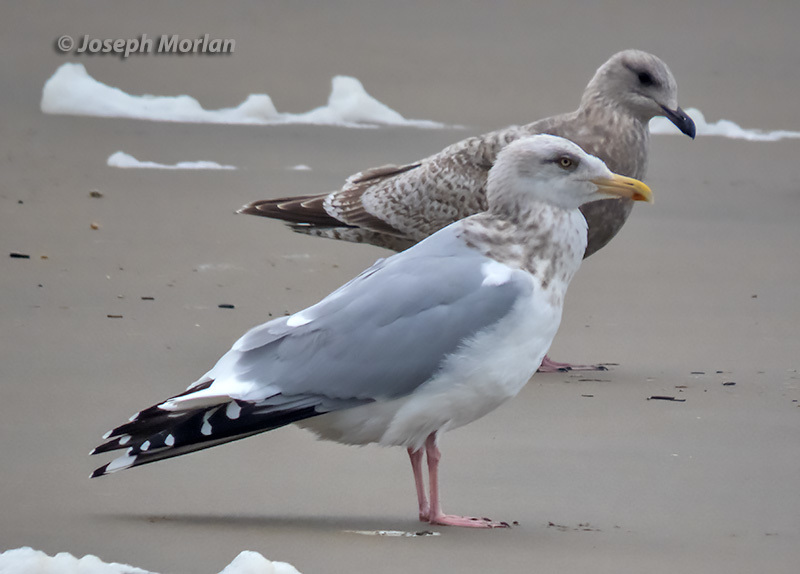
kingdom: Animalia
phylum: Chordata
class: Aves
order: Charadriiformes
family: Laridae
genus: Larus
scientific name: Larus argentatus
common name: Herring gull
